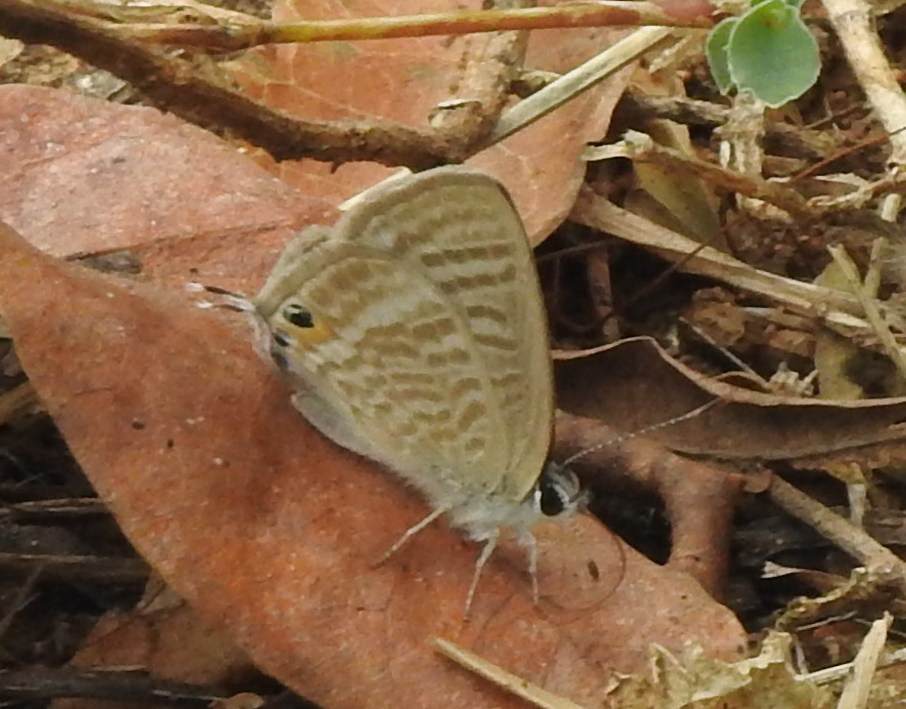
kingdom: Animalia
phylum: Arthropoda
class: Insecta
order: Lepidoptera
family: Lycaenidae
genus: Lampides
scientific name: Lampides boeticus
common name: Long-tailed blue
